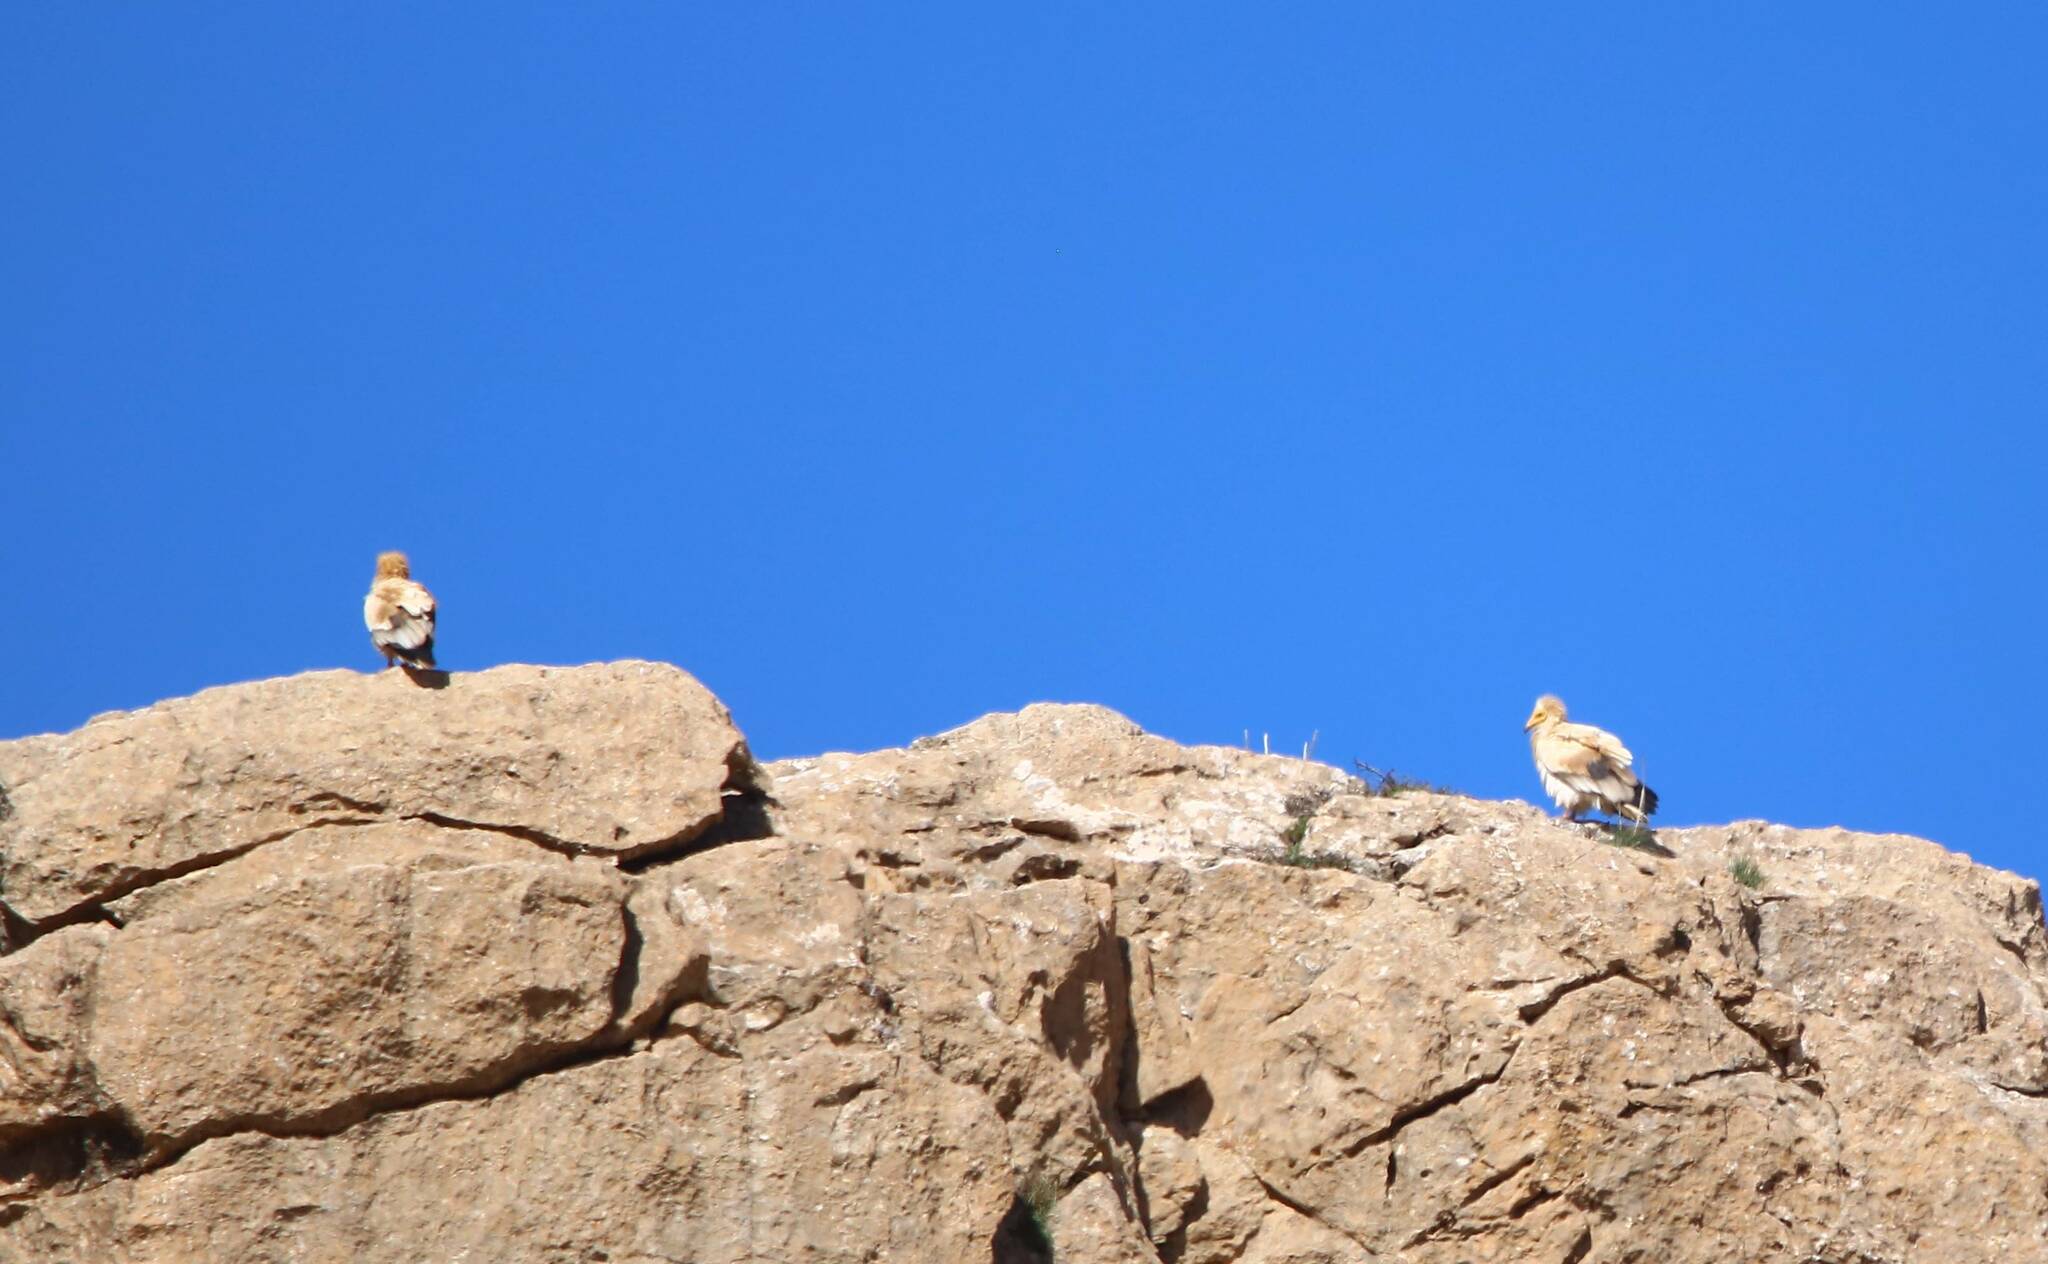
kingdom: Animalia
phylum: Chordata
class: Aves
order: Accipitriformes
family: Accipitridae
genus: Neophron
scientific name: Neophron percnopterus
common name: Egyptian vulture
